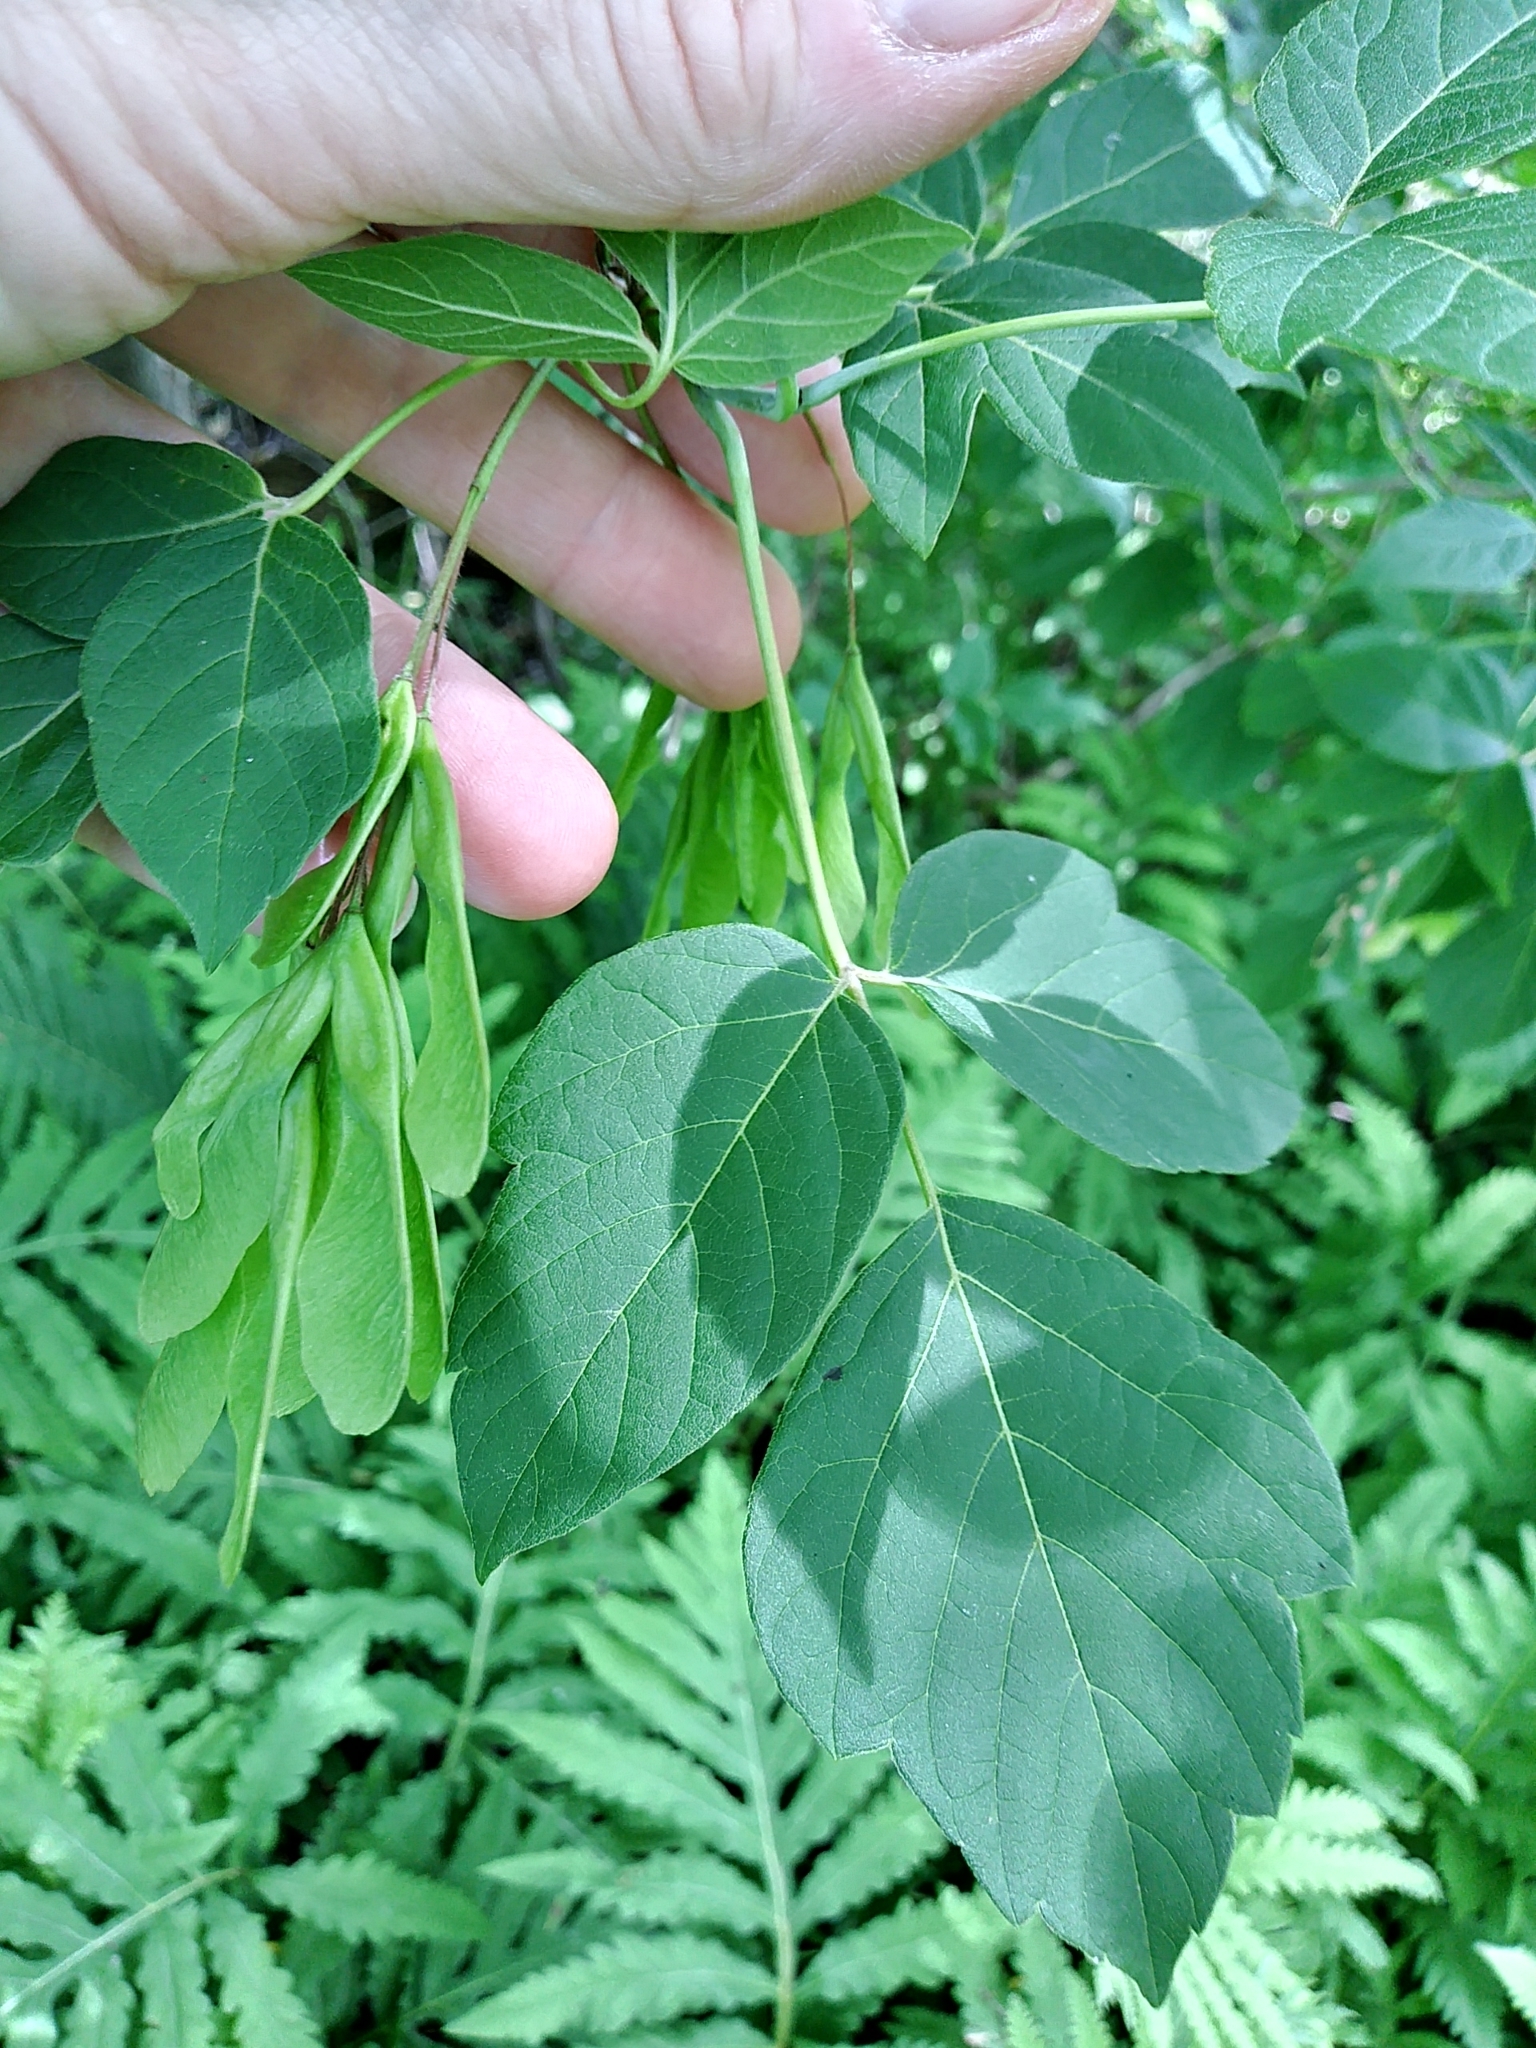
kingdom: Plantae
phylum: Tracheophyta
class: Magnoliopsida
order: Sapindales
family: Sapindaceae
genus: Acer
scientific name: Acer negundo
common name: Ashleaf maple
